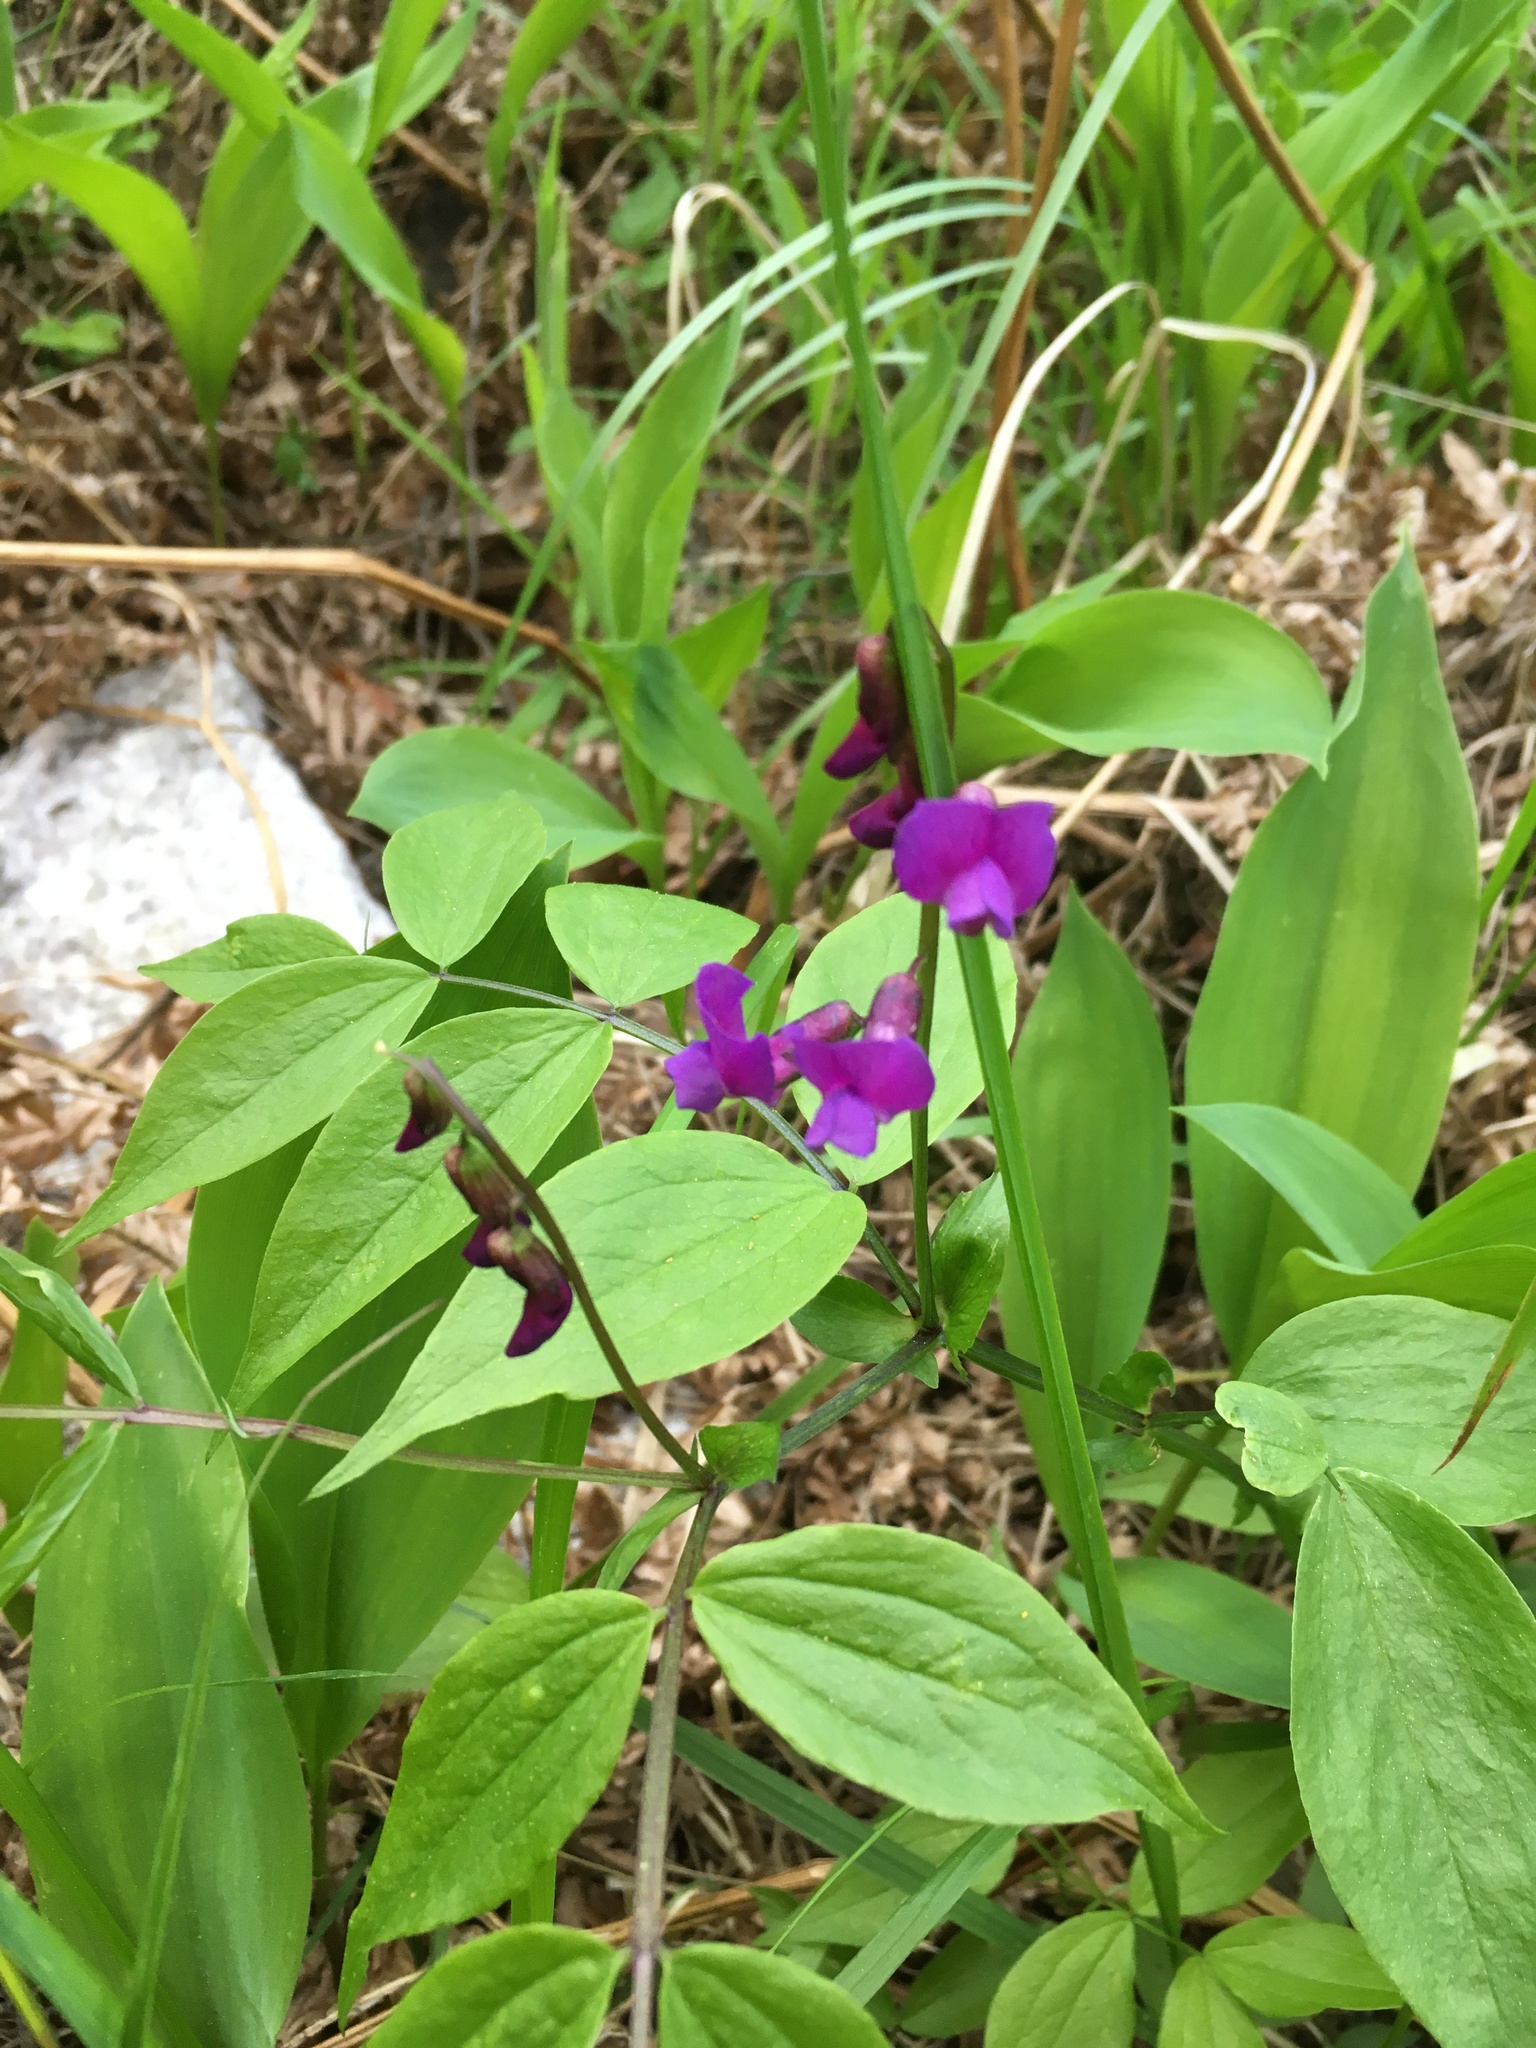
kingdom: Plantae
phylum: Tracheophyta
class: Magnoliopsida
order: Fabales
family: Fabaceae
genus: Lathyrus
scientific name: Lathyrus vernus
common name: Spring pea
